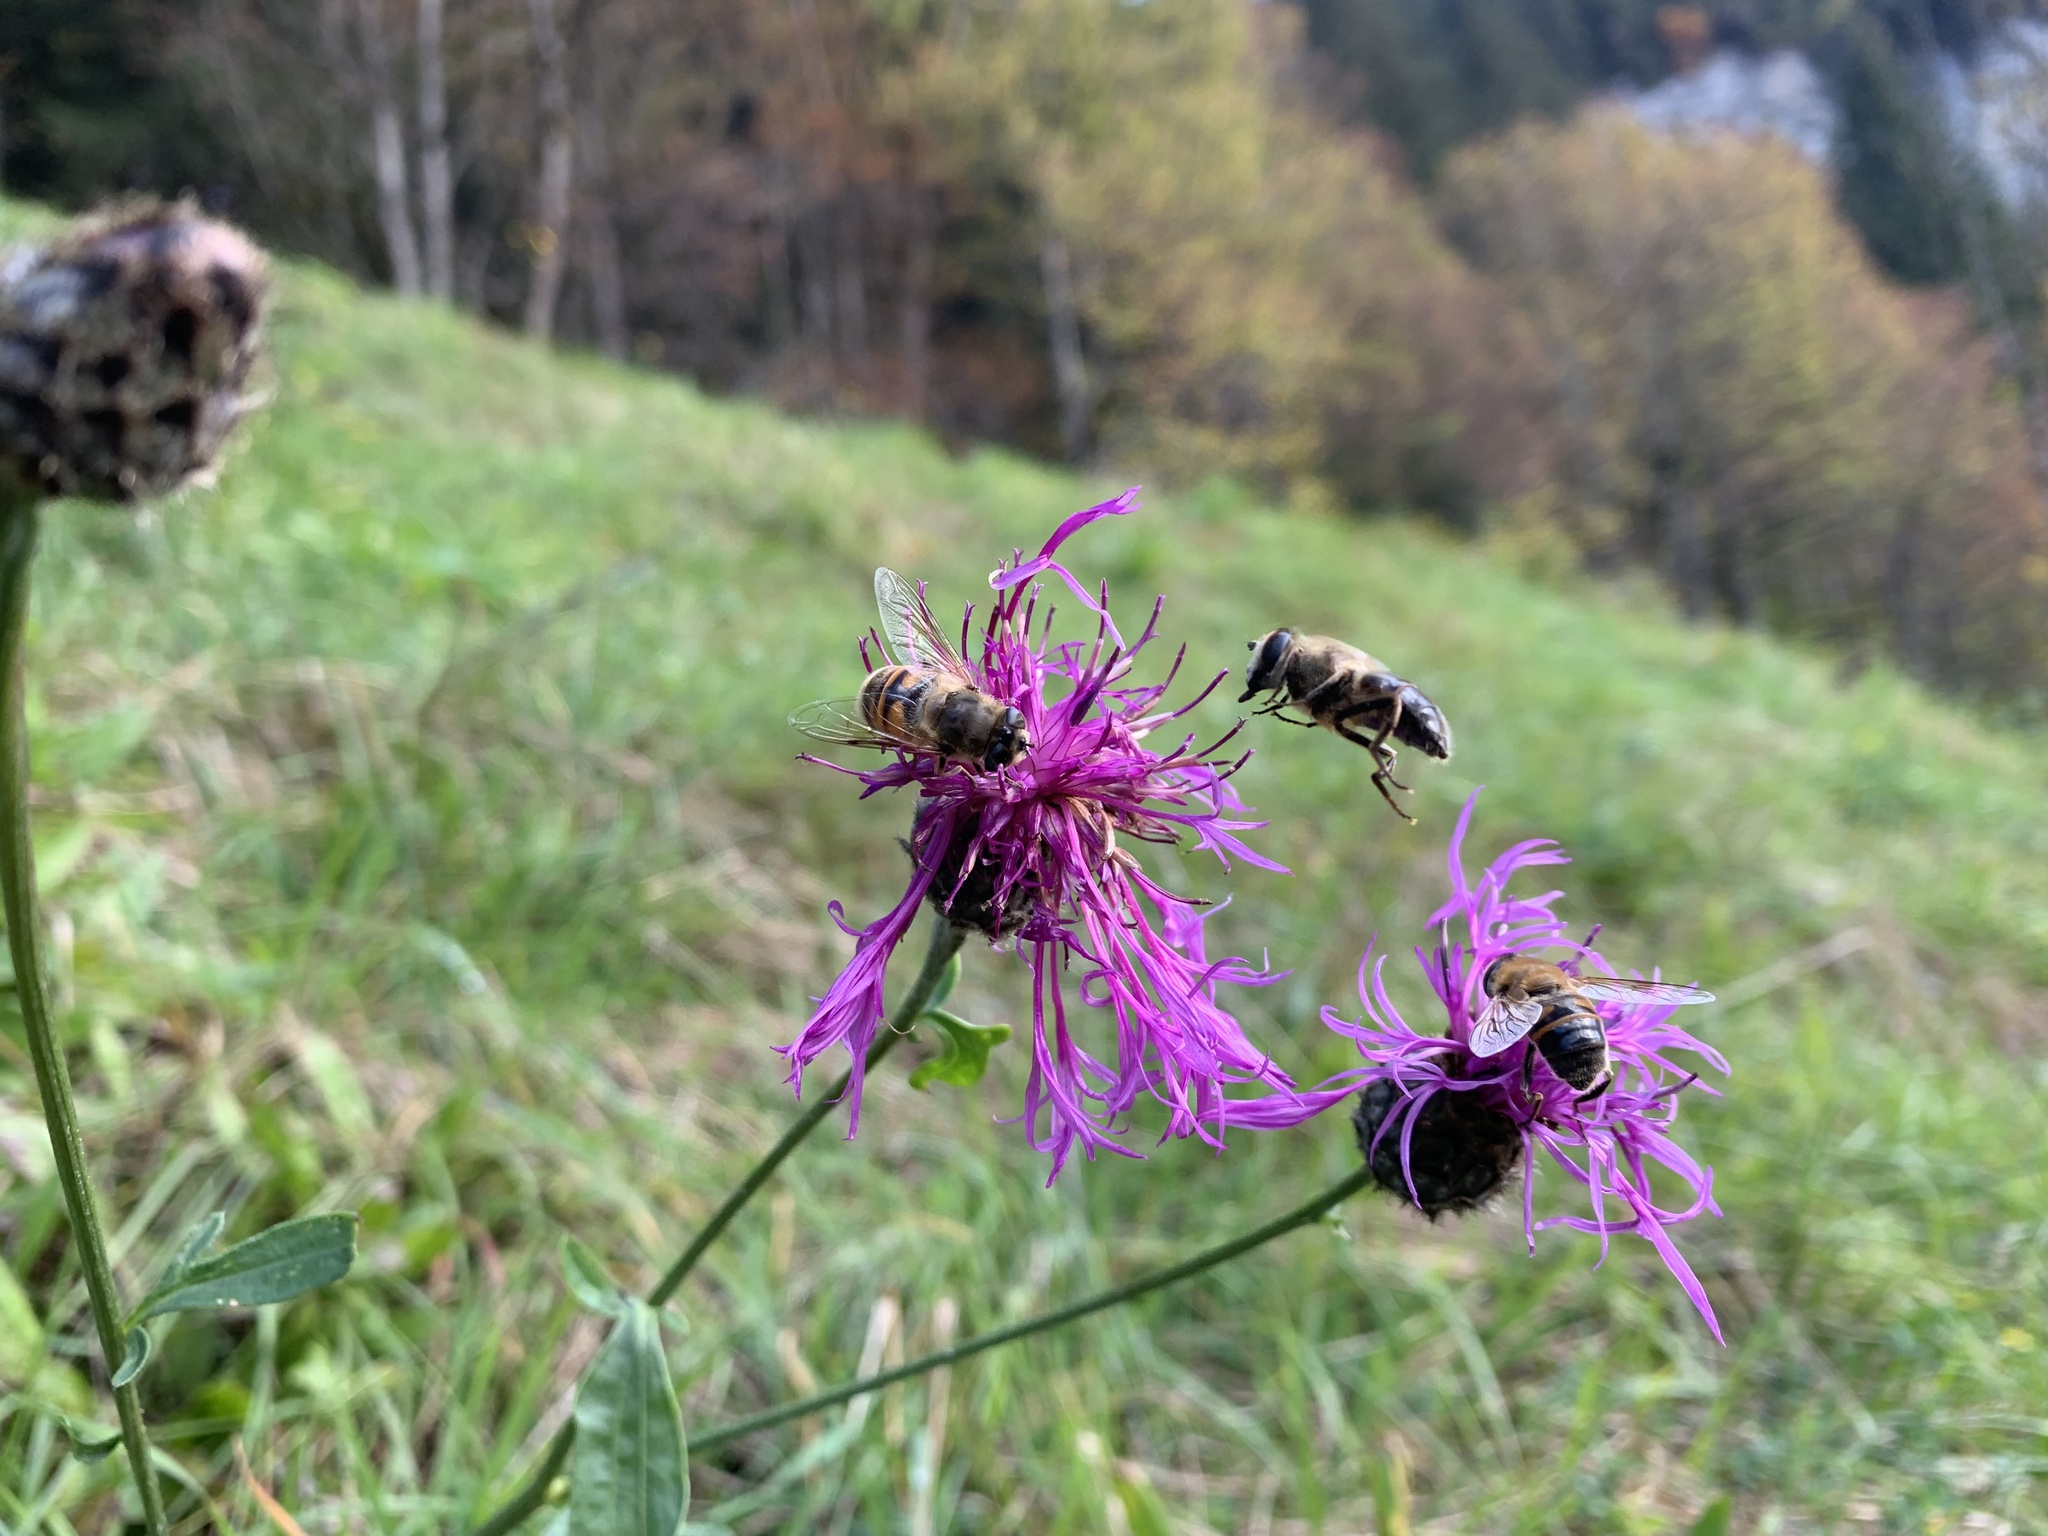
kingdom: Animalia
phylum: Arthropoda
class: Insecta
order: Diptera
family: Syrphidae
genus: Eristalis
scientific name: Eristalis tenax
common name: Drone fly
